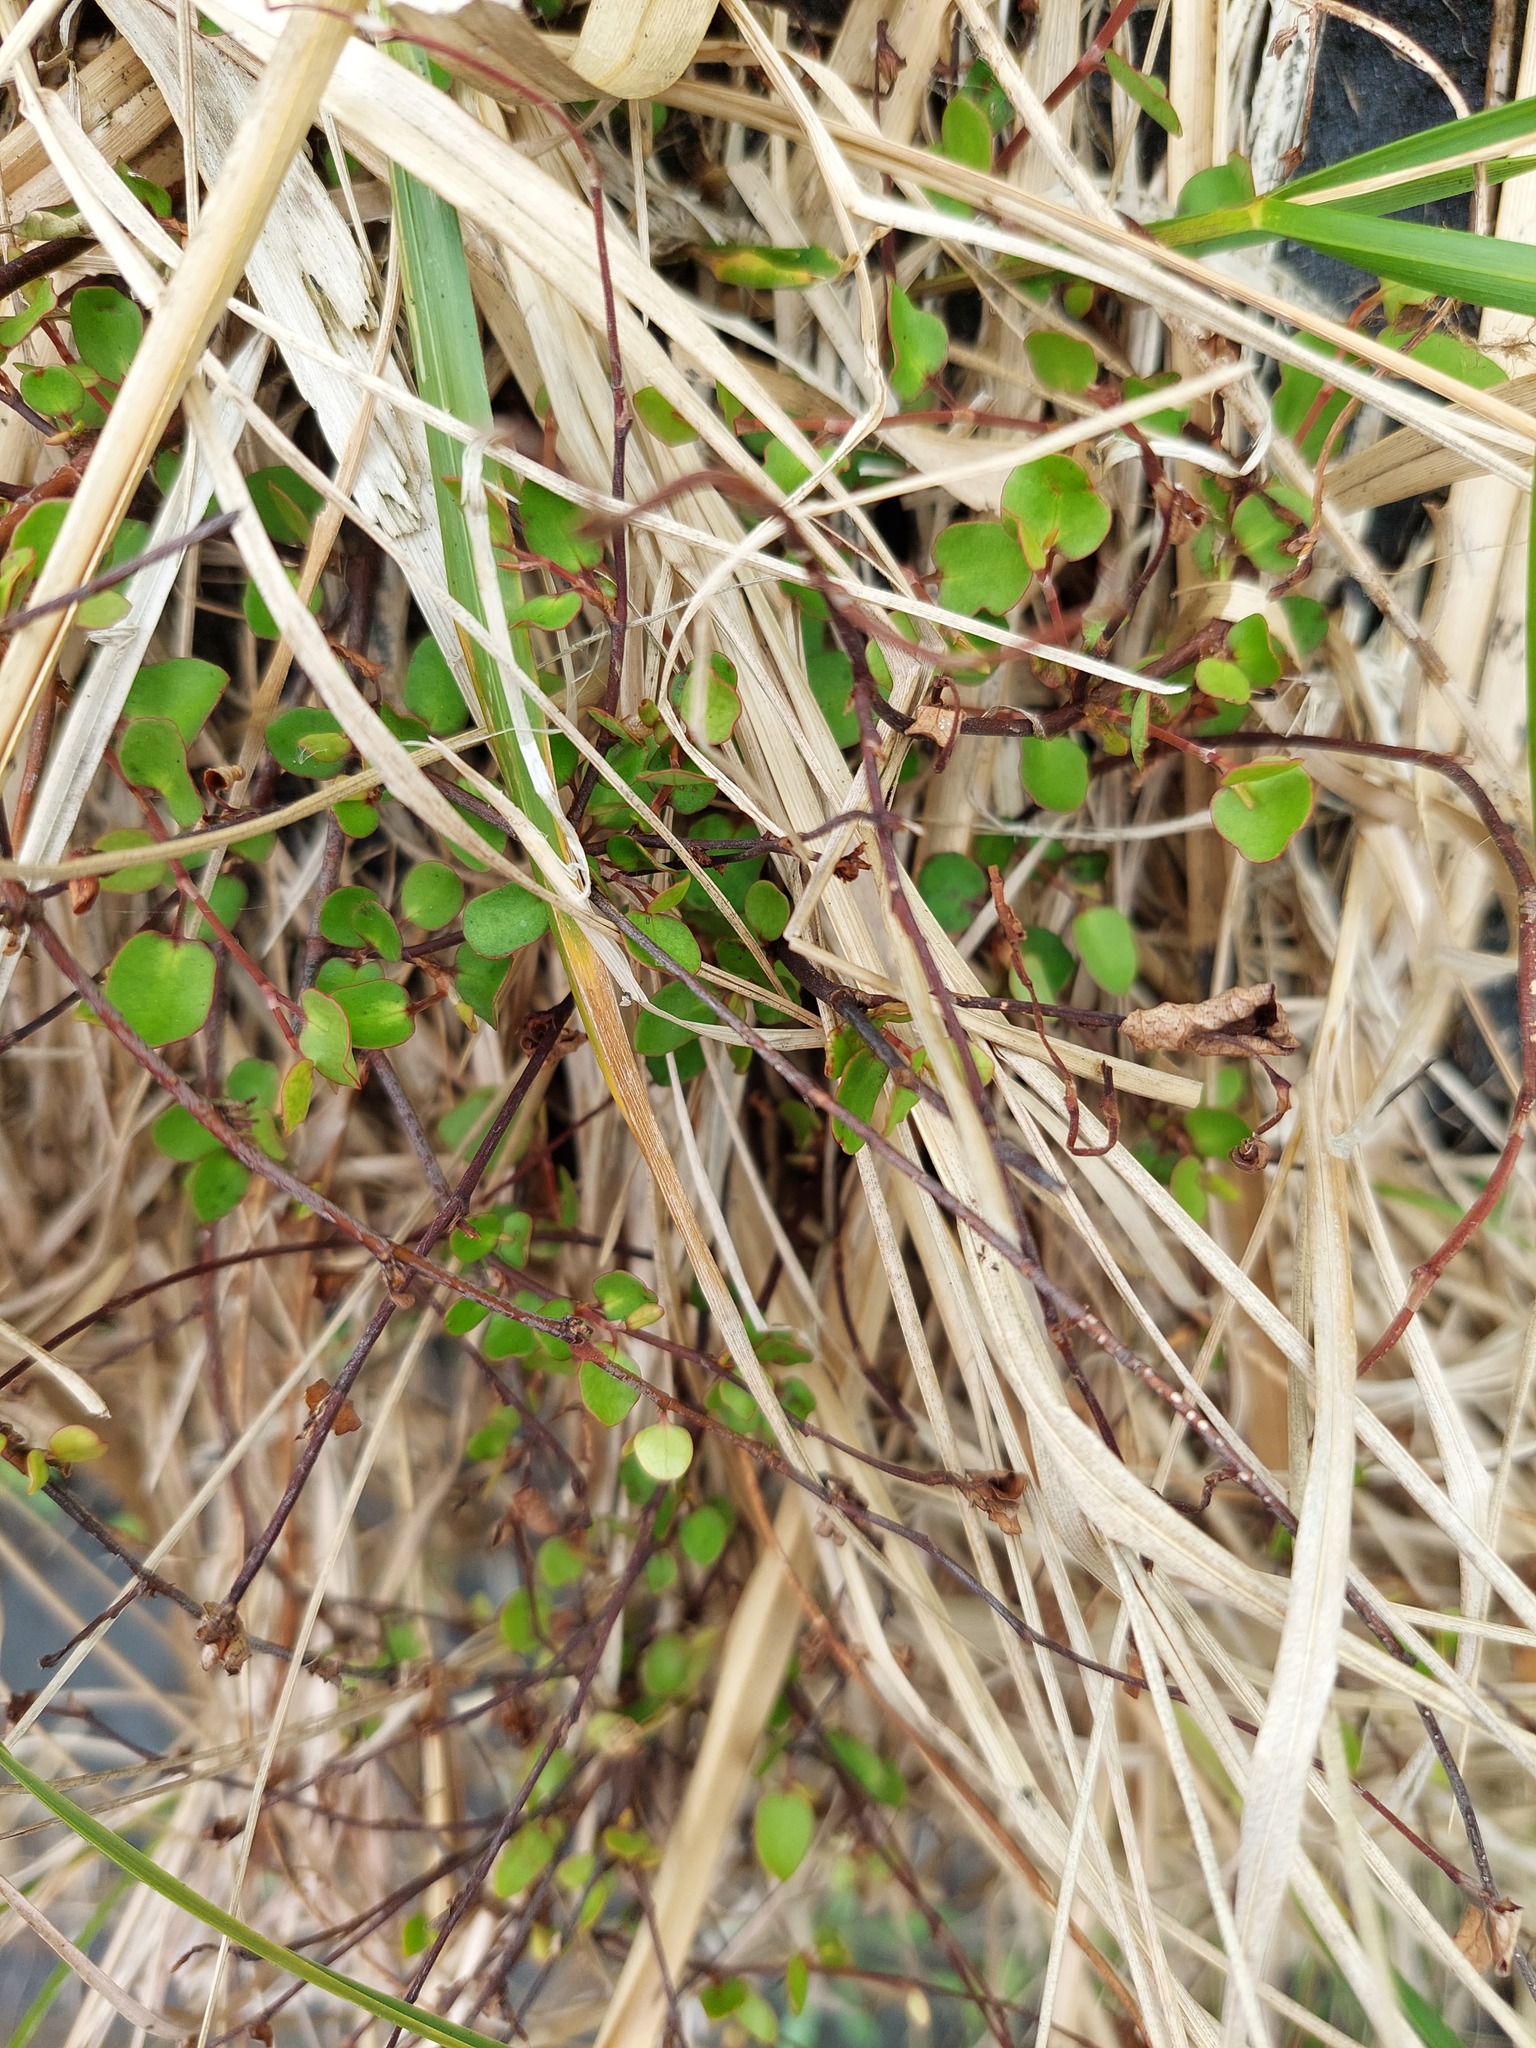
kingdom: Plantae
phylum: Tracheophyta
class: Magnoliopsida
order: Caryophyllales
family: Polygonaceae
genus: Muehlenbeckia
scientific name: Muehlenbeckia complexa
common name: Wireplant
